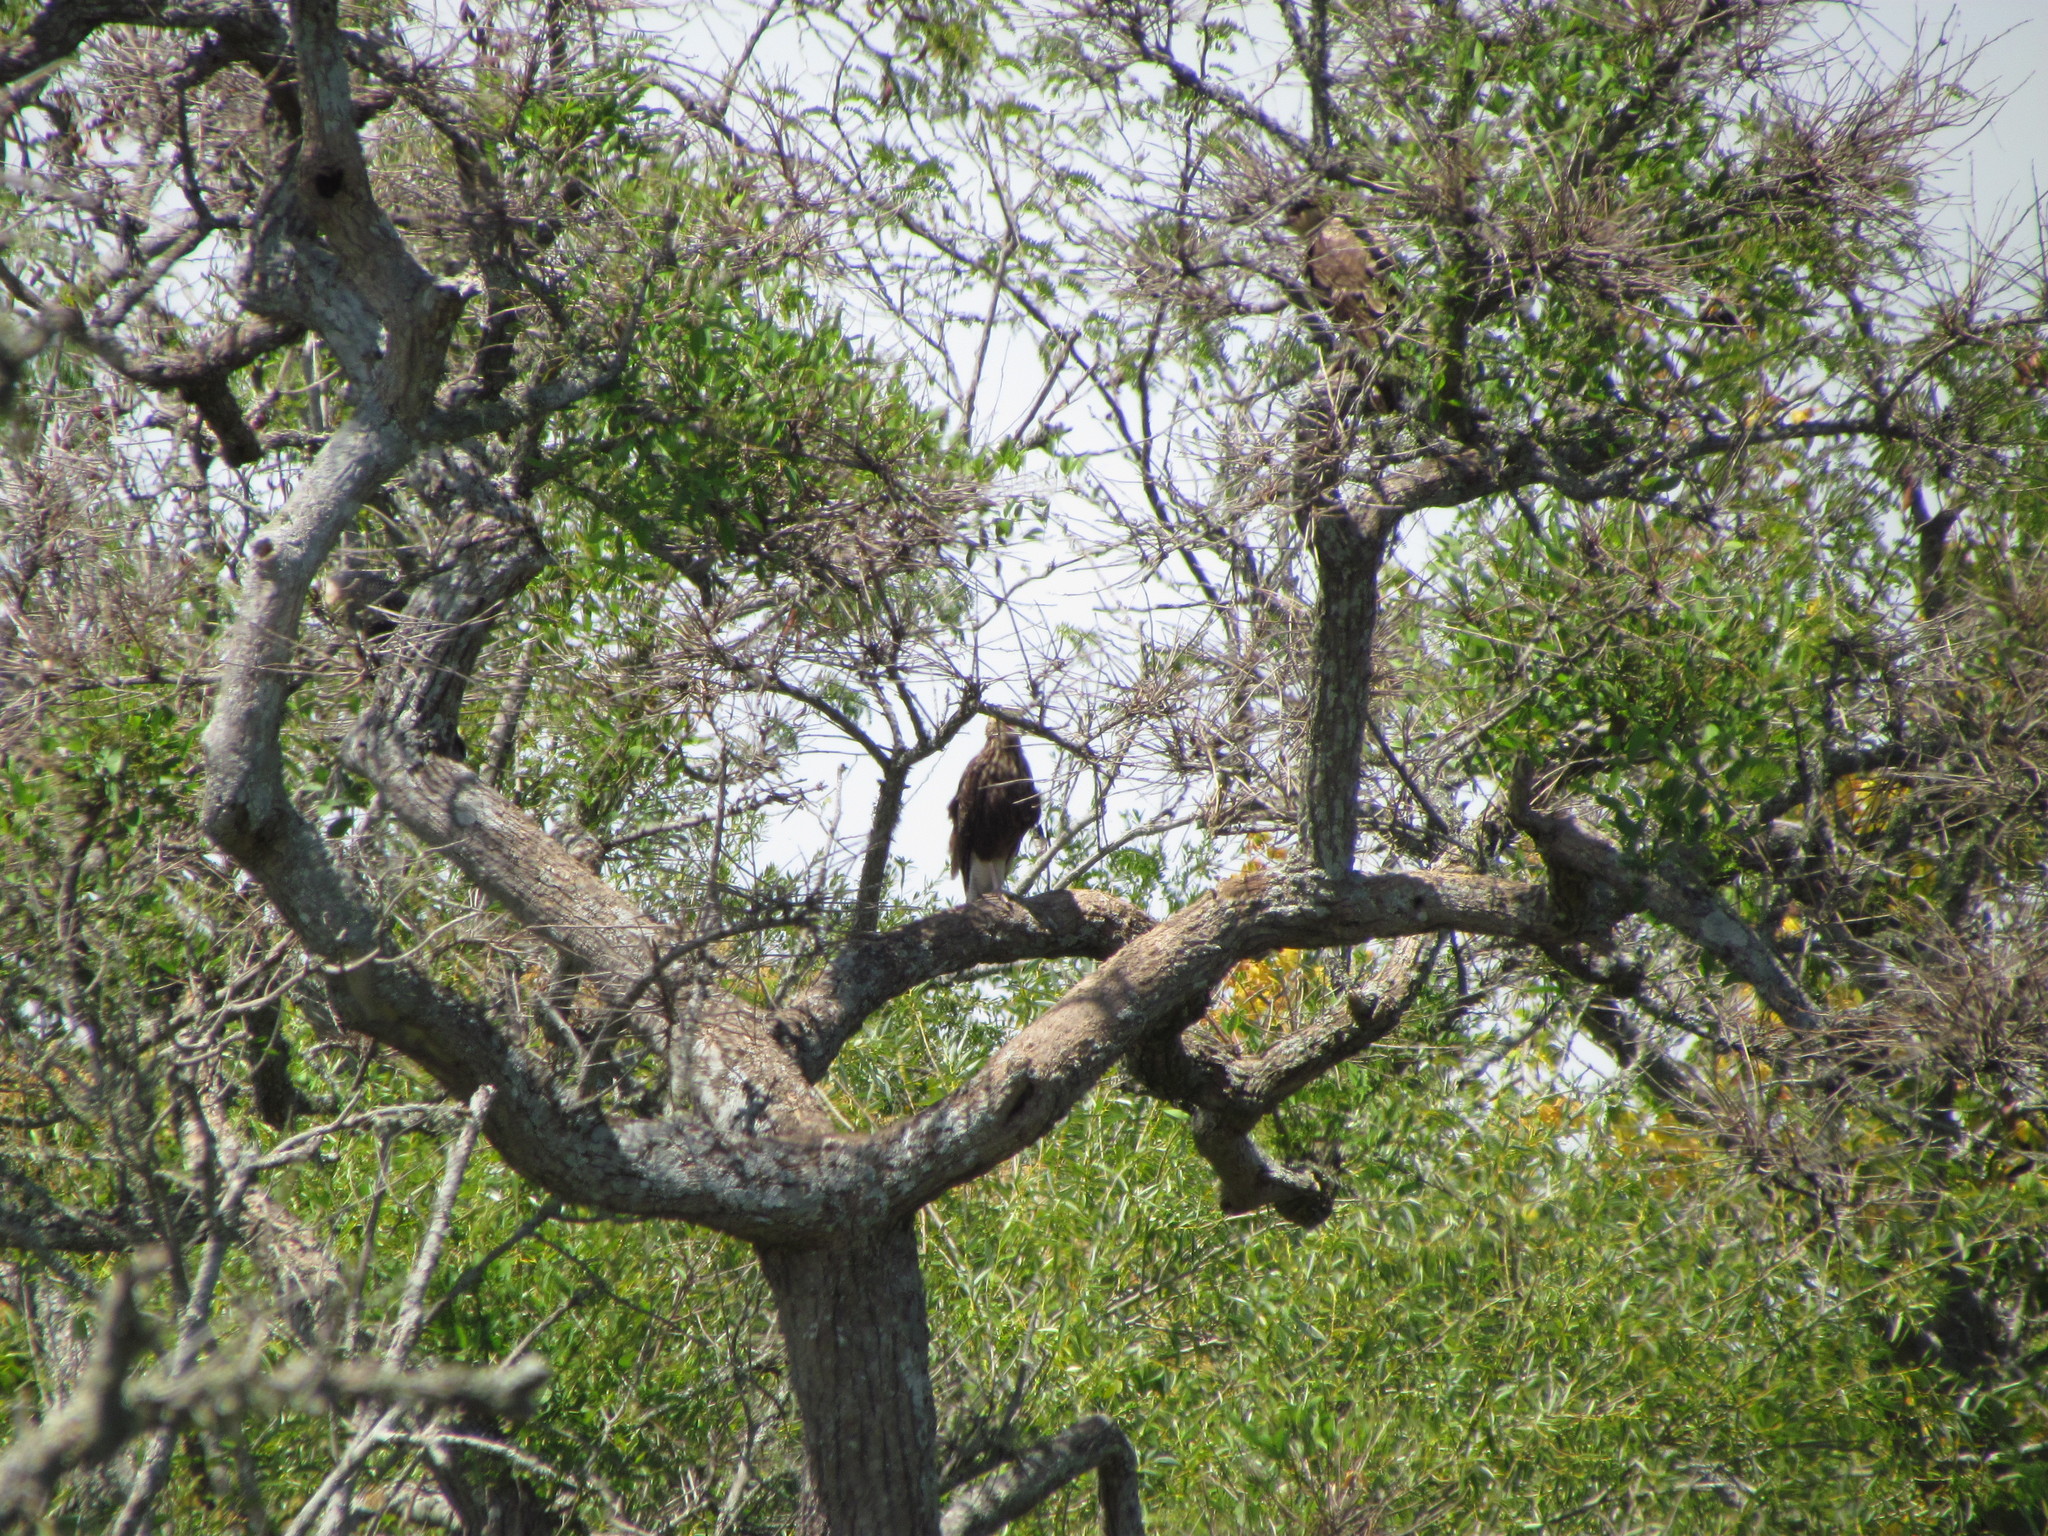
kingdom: Animalia
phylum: Chordata
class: Aves
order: Falconiformes
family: Falconidae
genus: Caracara
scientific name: Caracara plancus
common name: Southern caracara
